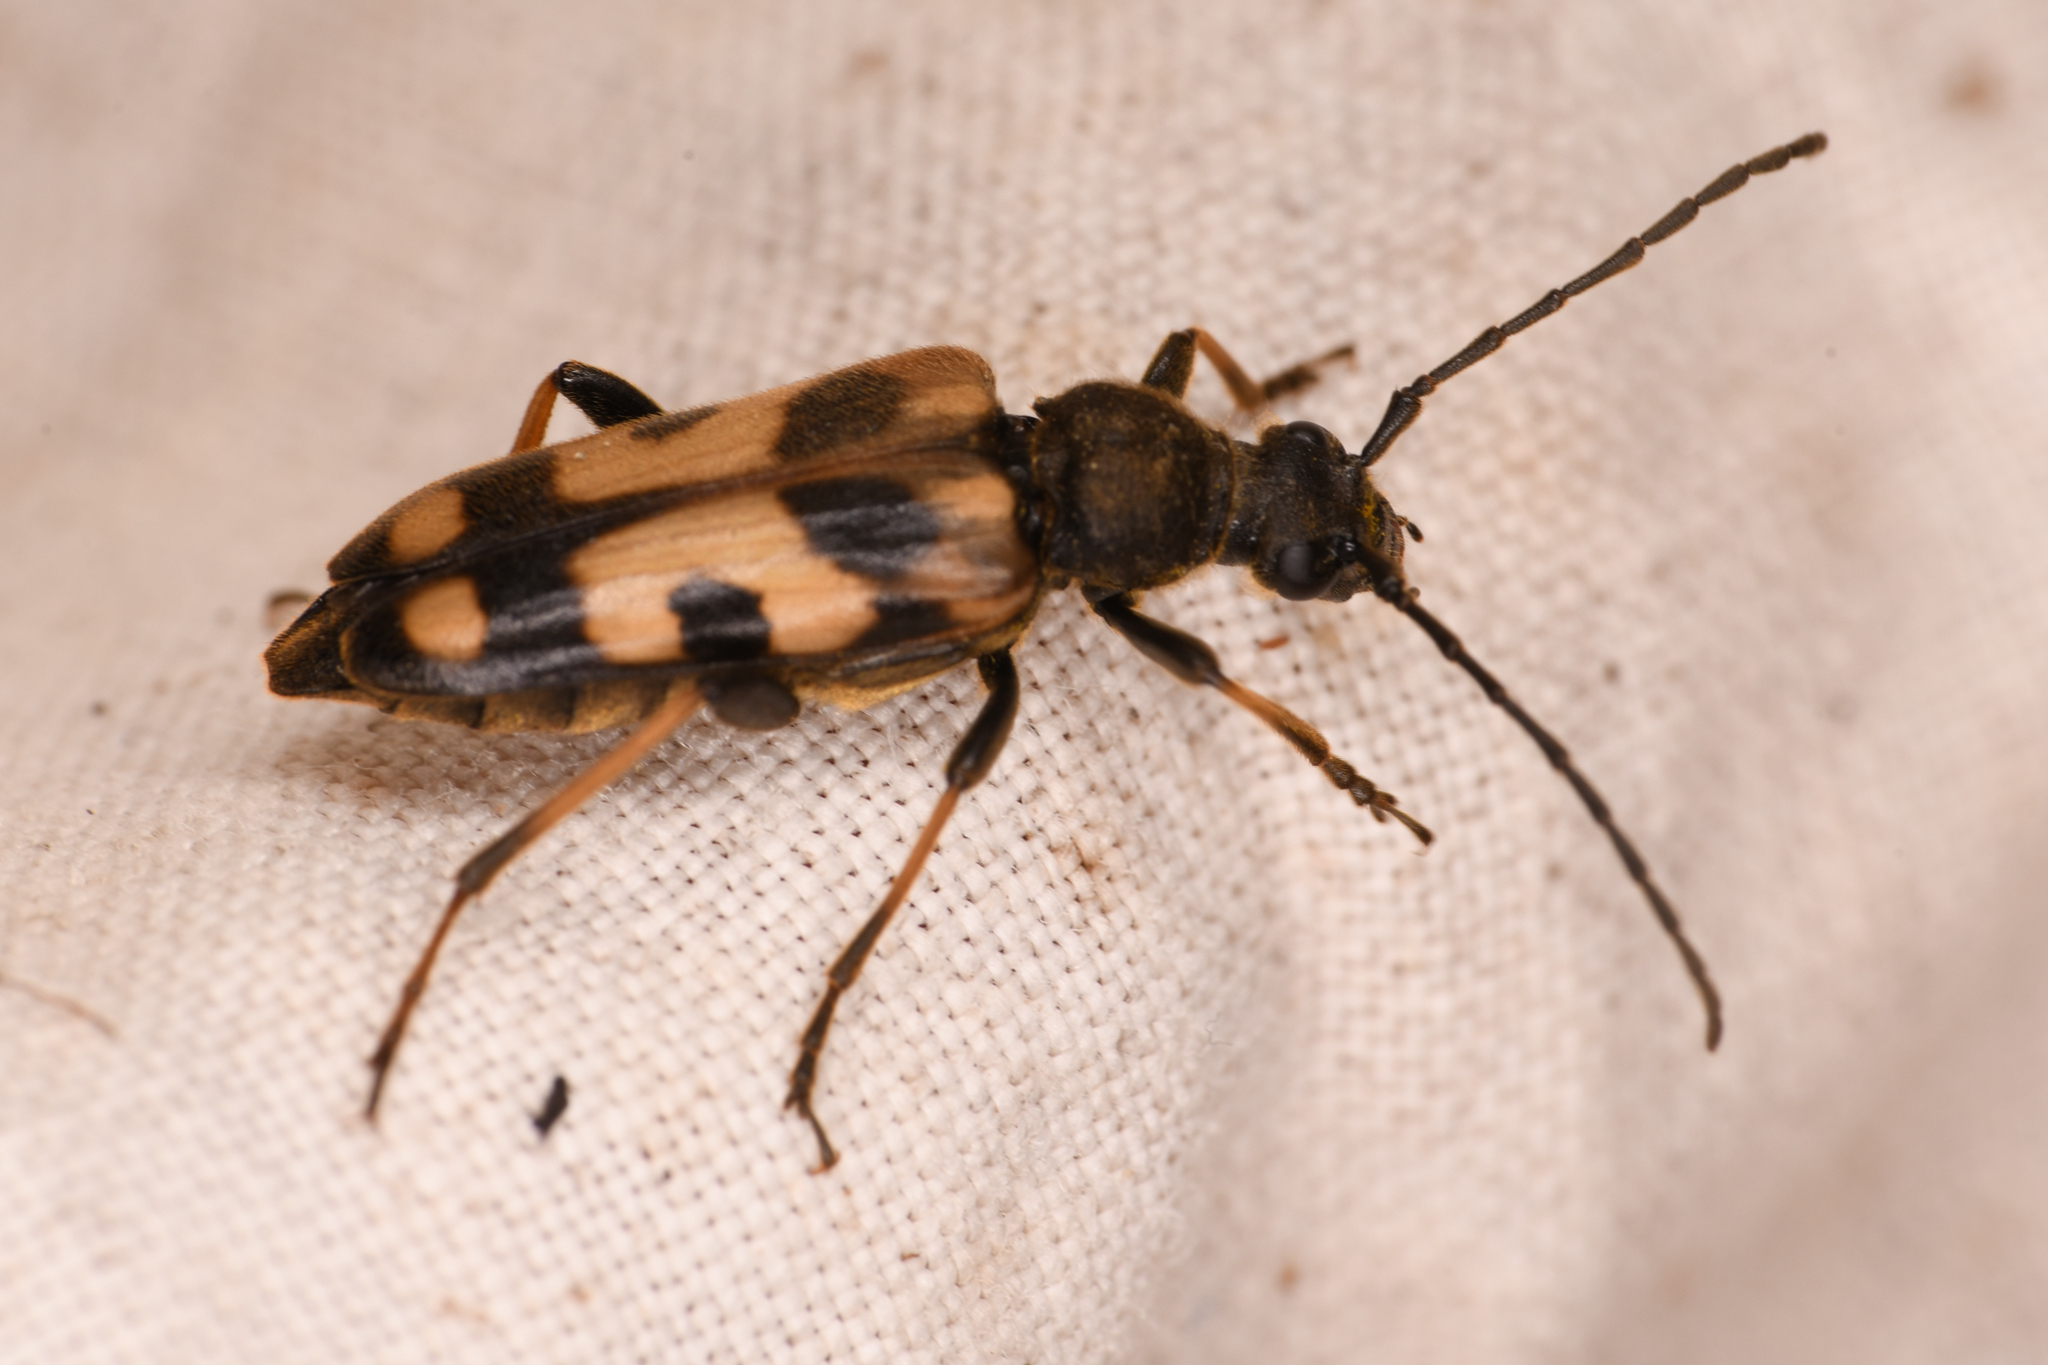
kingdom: Animalia
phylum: Arthropoda
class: Insecta
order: Coleoptera
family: Cerambycidae
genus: Xestoleptura
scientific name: Xestoleptura tibialis
